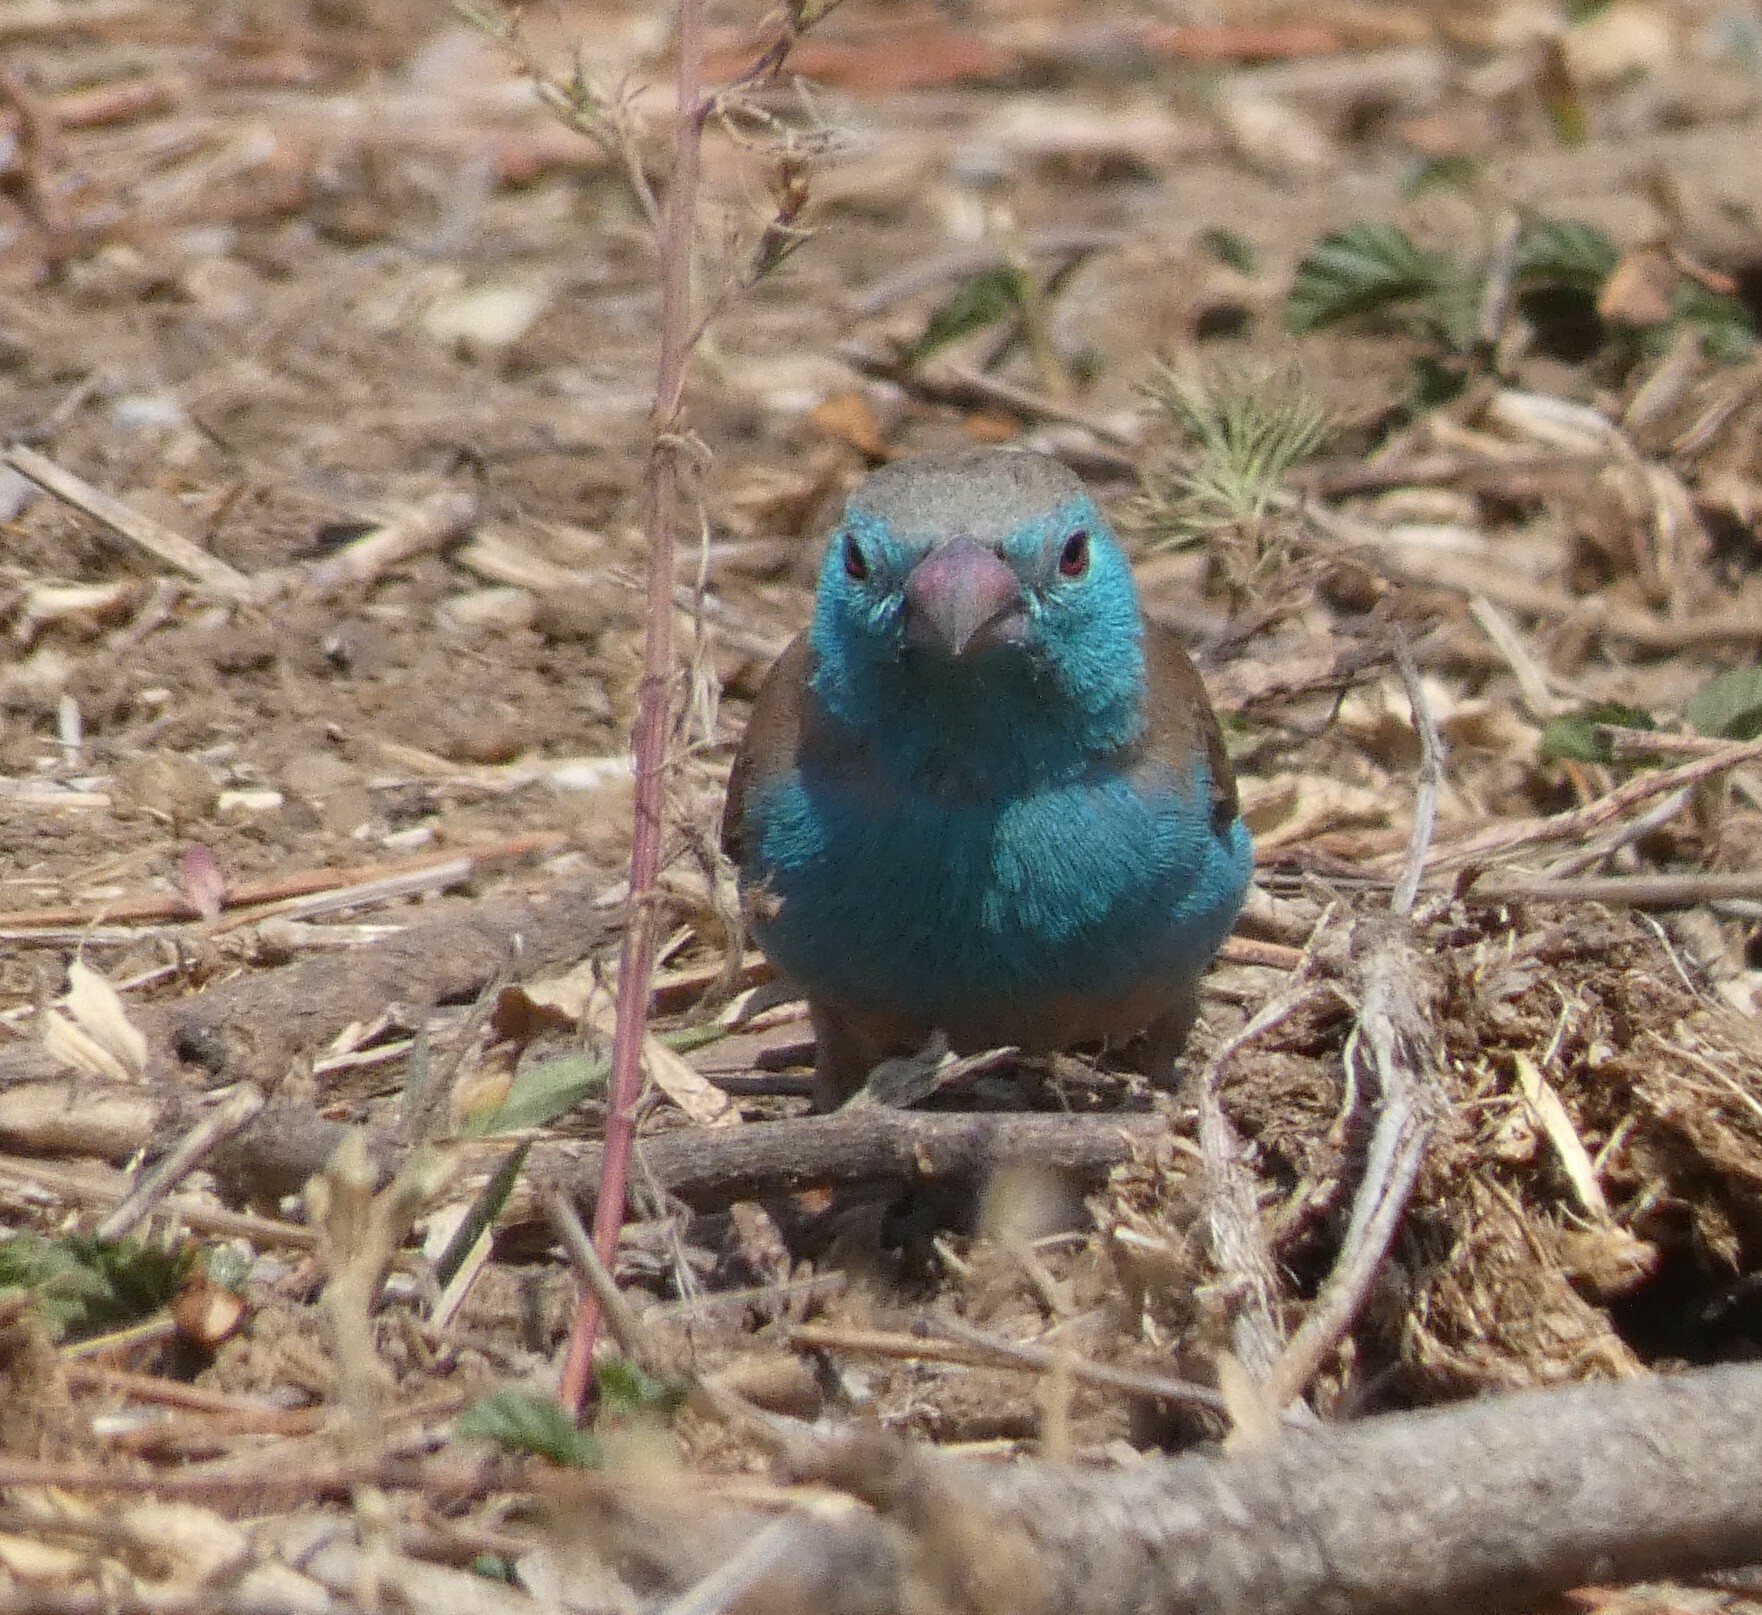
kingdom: Animalia
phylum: Chordata
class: Aves
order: Passeriformes
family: Estrildidae
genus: Uraeginthus
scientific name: Uraeginthus angolensis
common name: Blue waxbill
